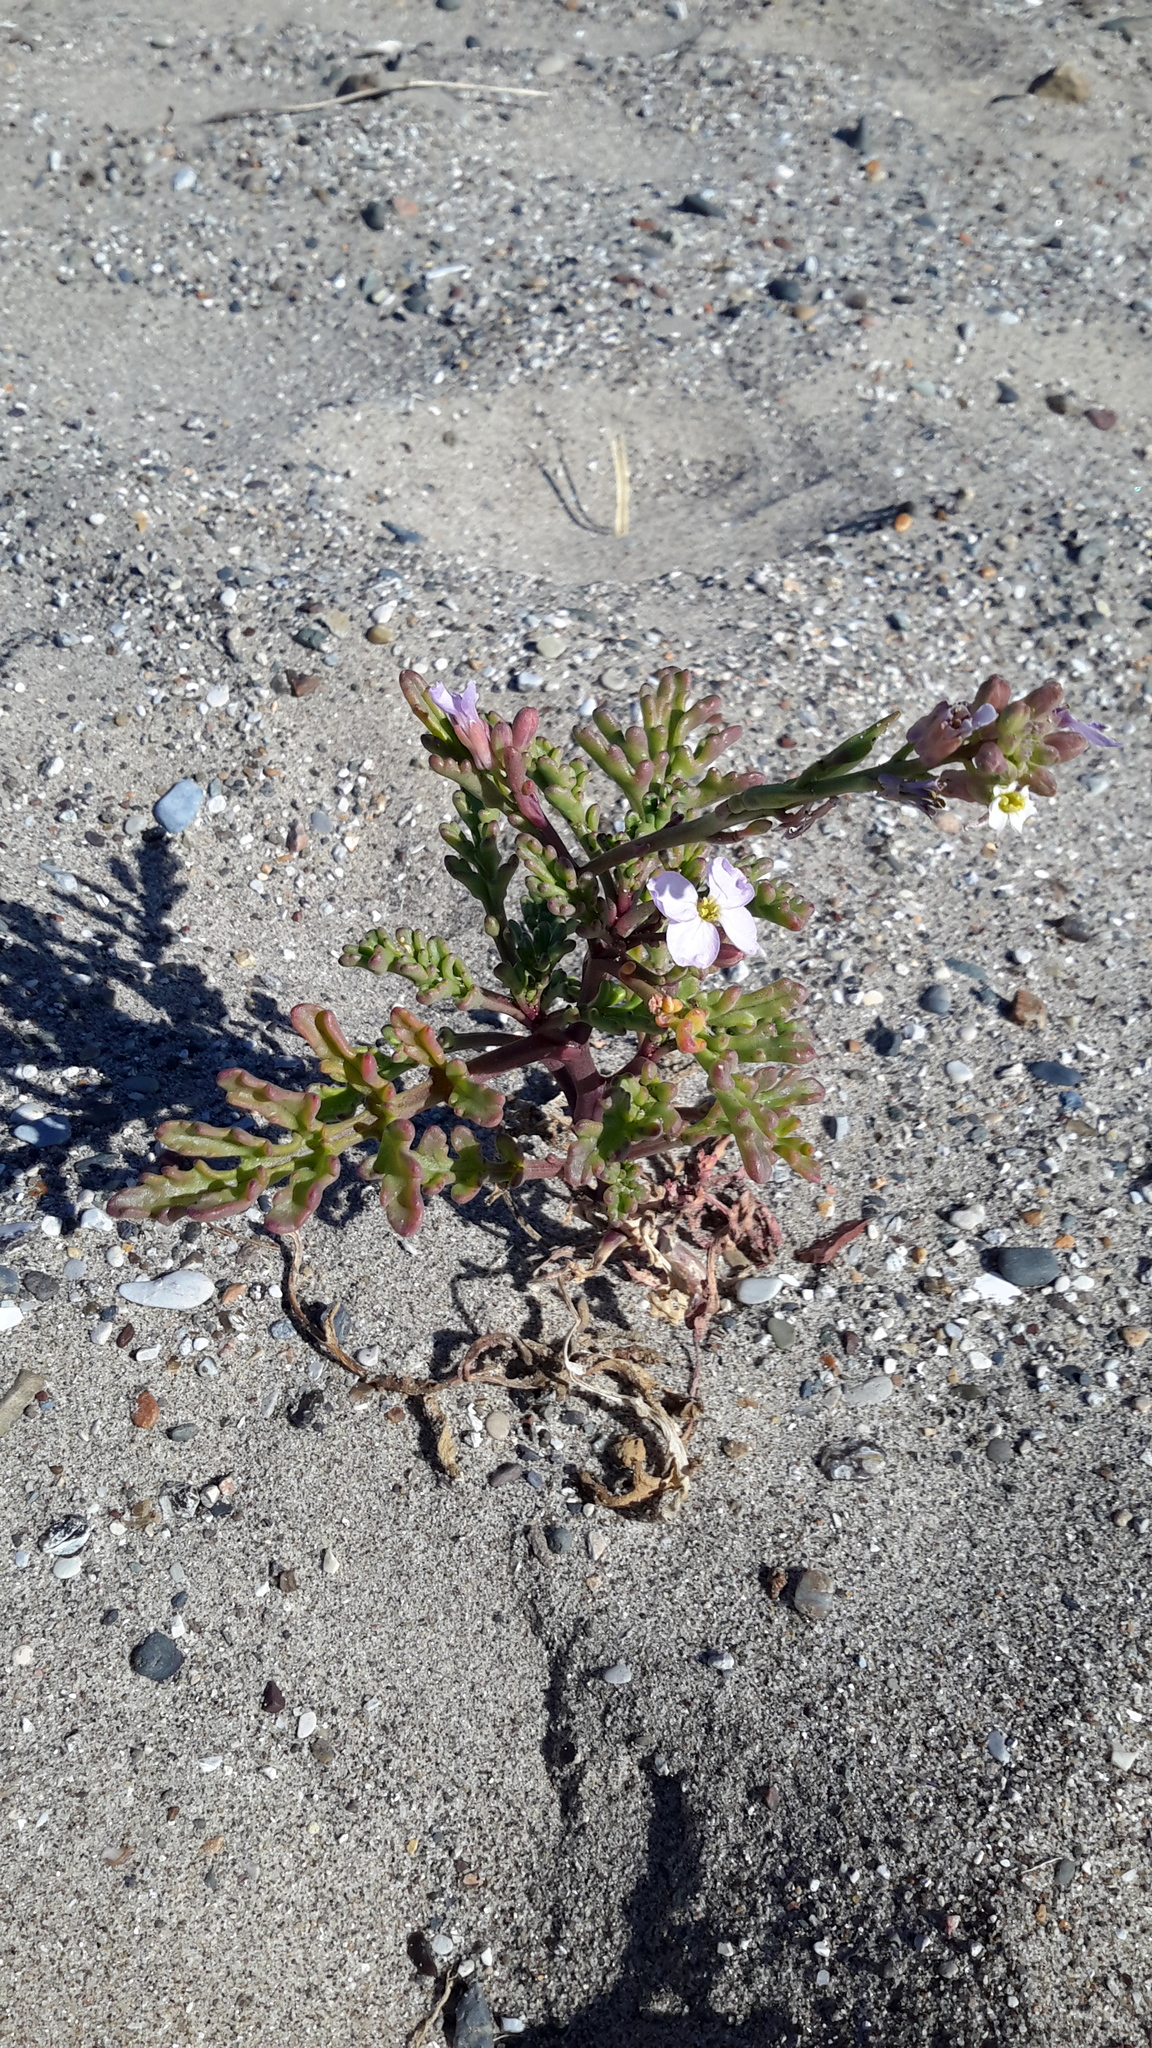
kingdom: Plantae
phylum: Tracheophyta
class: Magnoliopsida
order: Brassicales
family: Brassicaceae
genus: Cakile
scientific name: Cakile maritima
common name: Sea rocket
